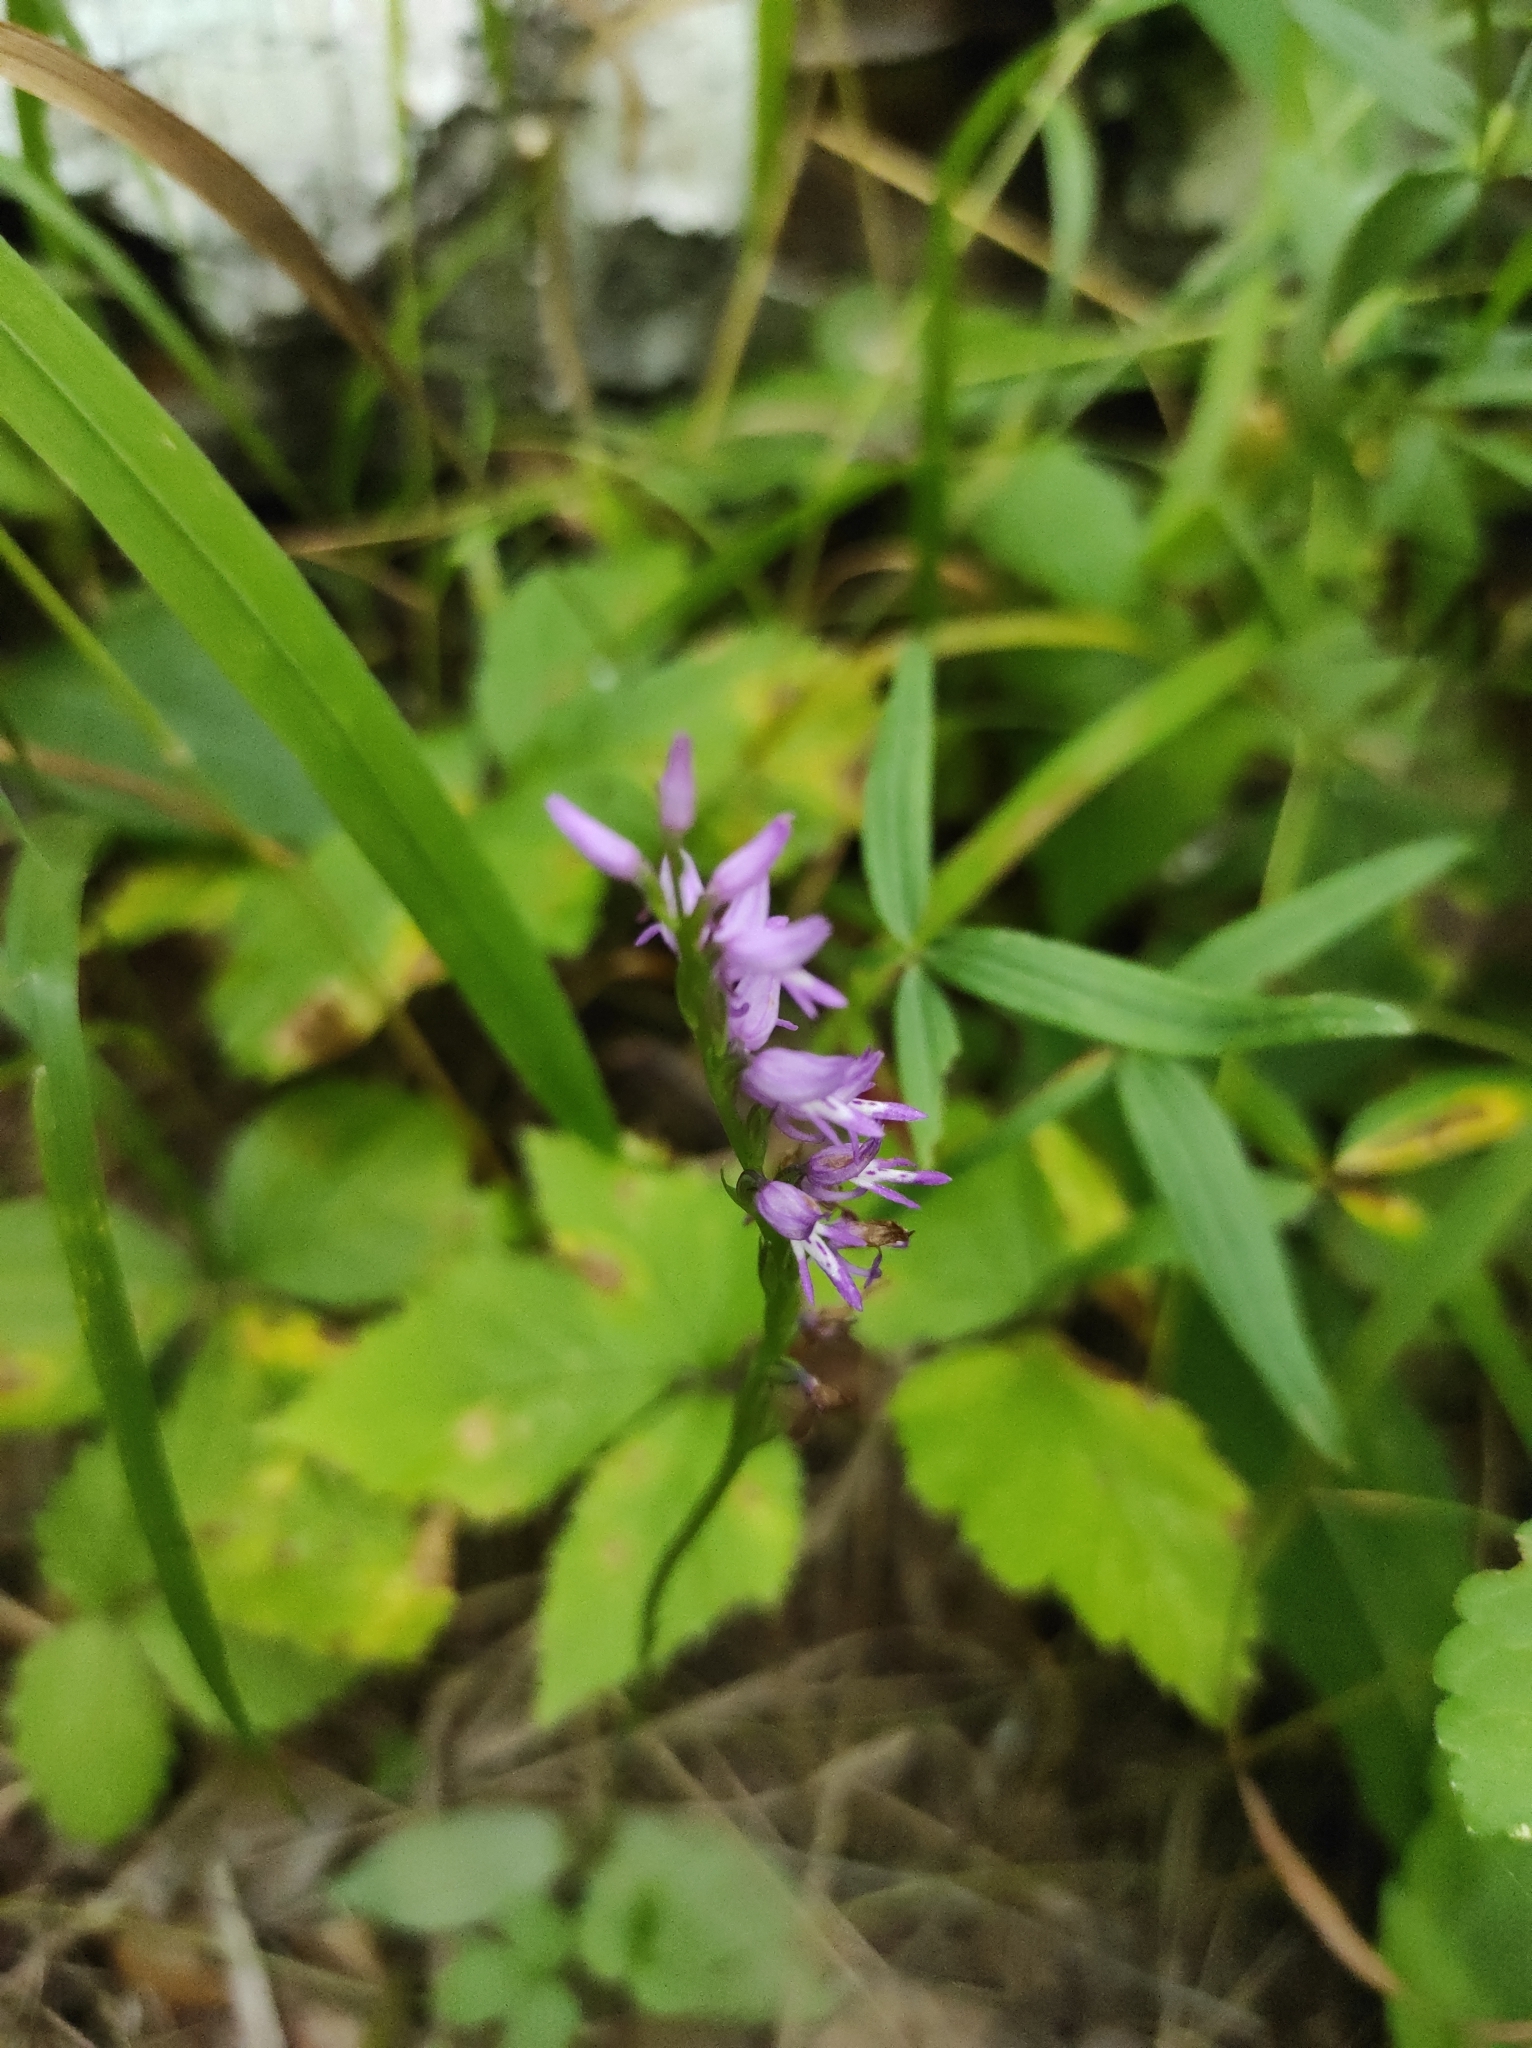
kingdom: Plantae
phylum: Tracheophyta
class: Liliopsida
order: Asparagales
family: Orchidaceae
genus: Hemipilia
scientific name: Hemipilia cucullata
